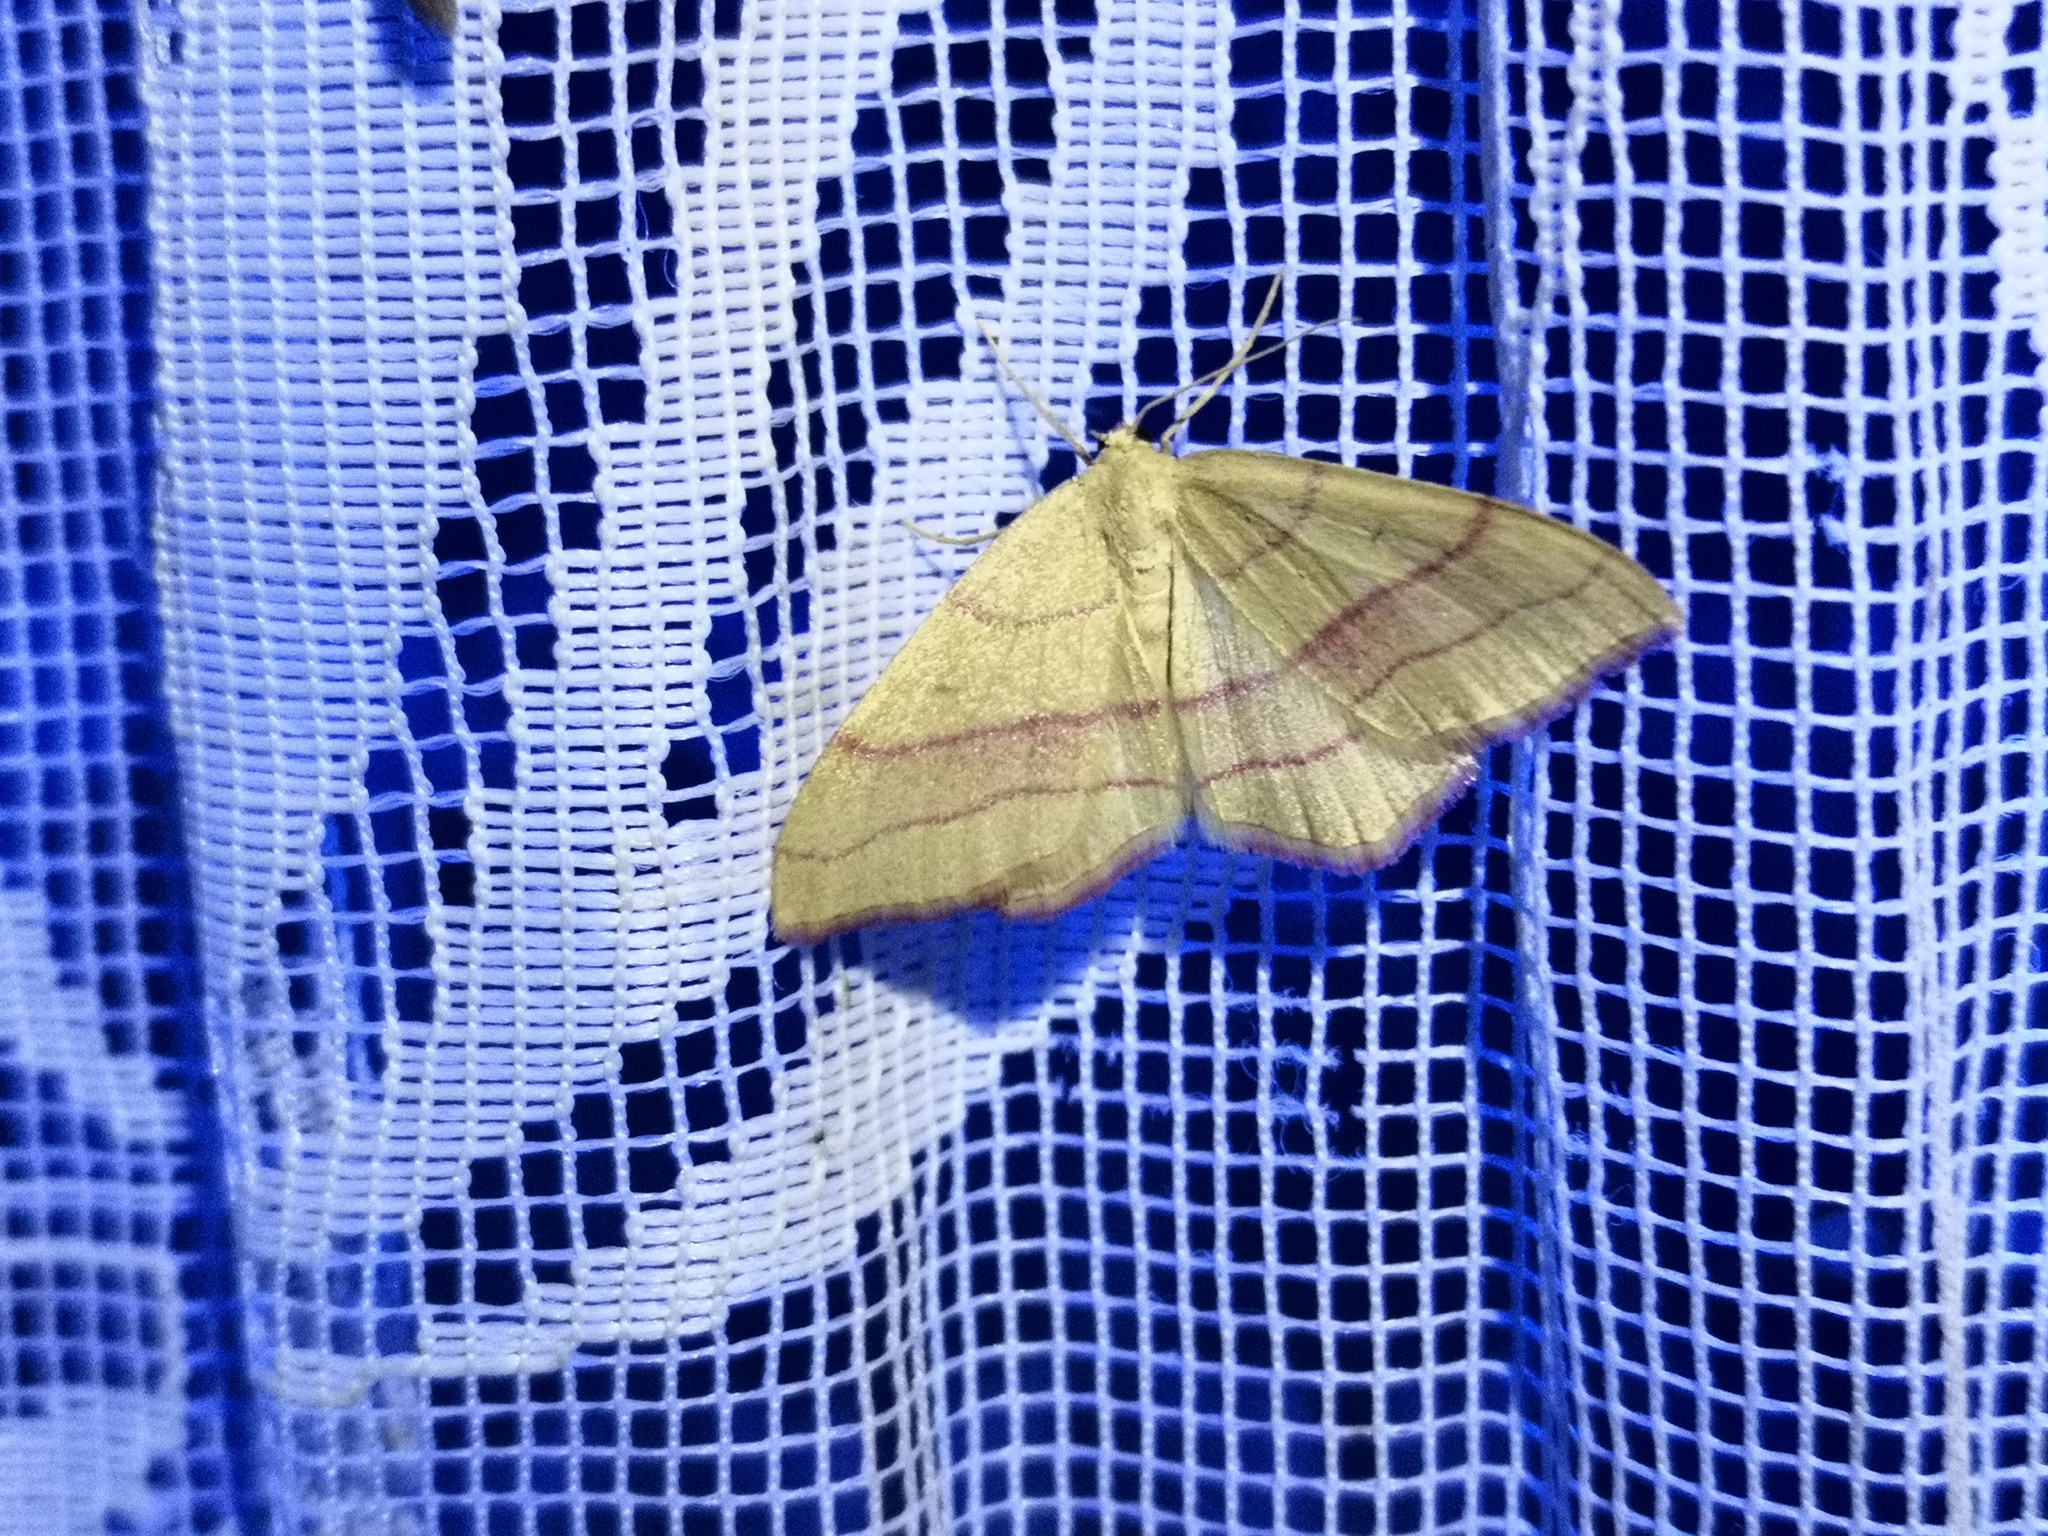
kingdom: Animalia
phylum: Arthropoda
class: Insecta
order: Lepidoptera
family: Geometridae
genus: Rhodostrophia
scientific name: Rhodostrophia vibicaria
